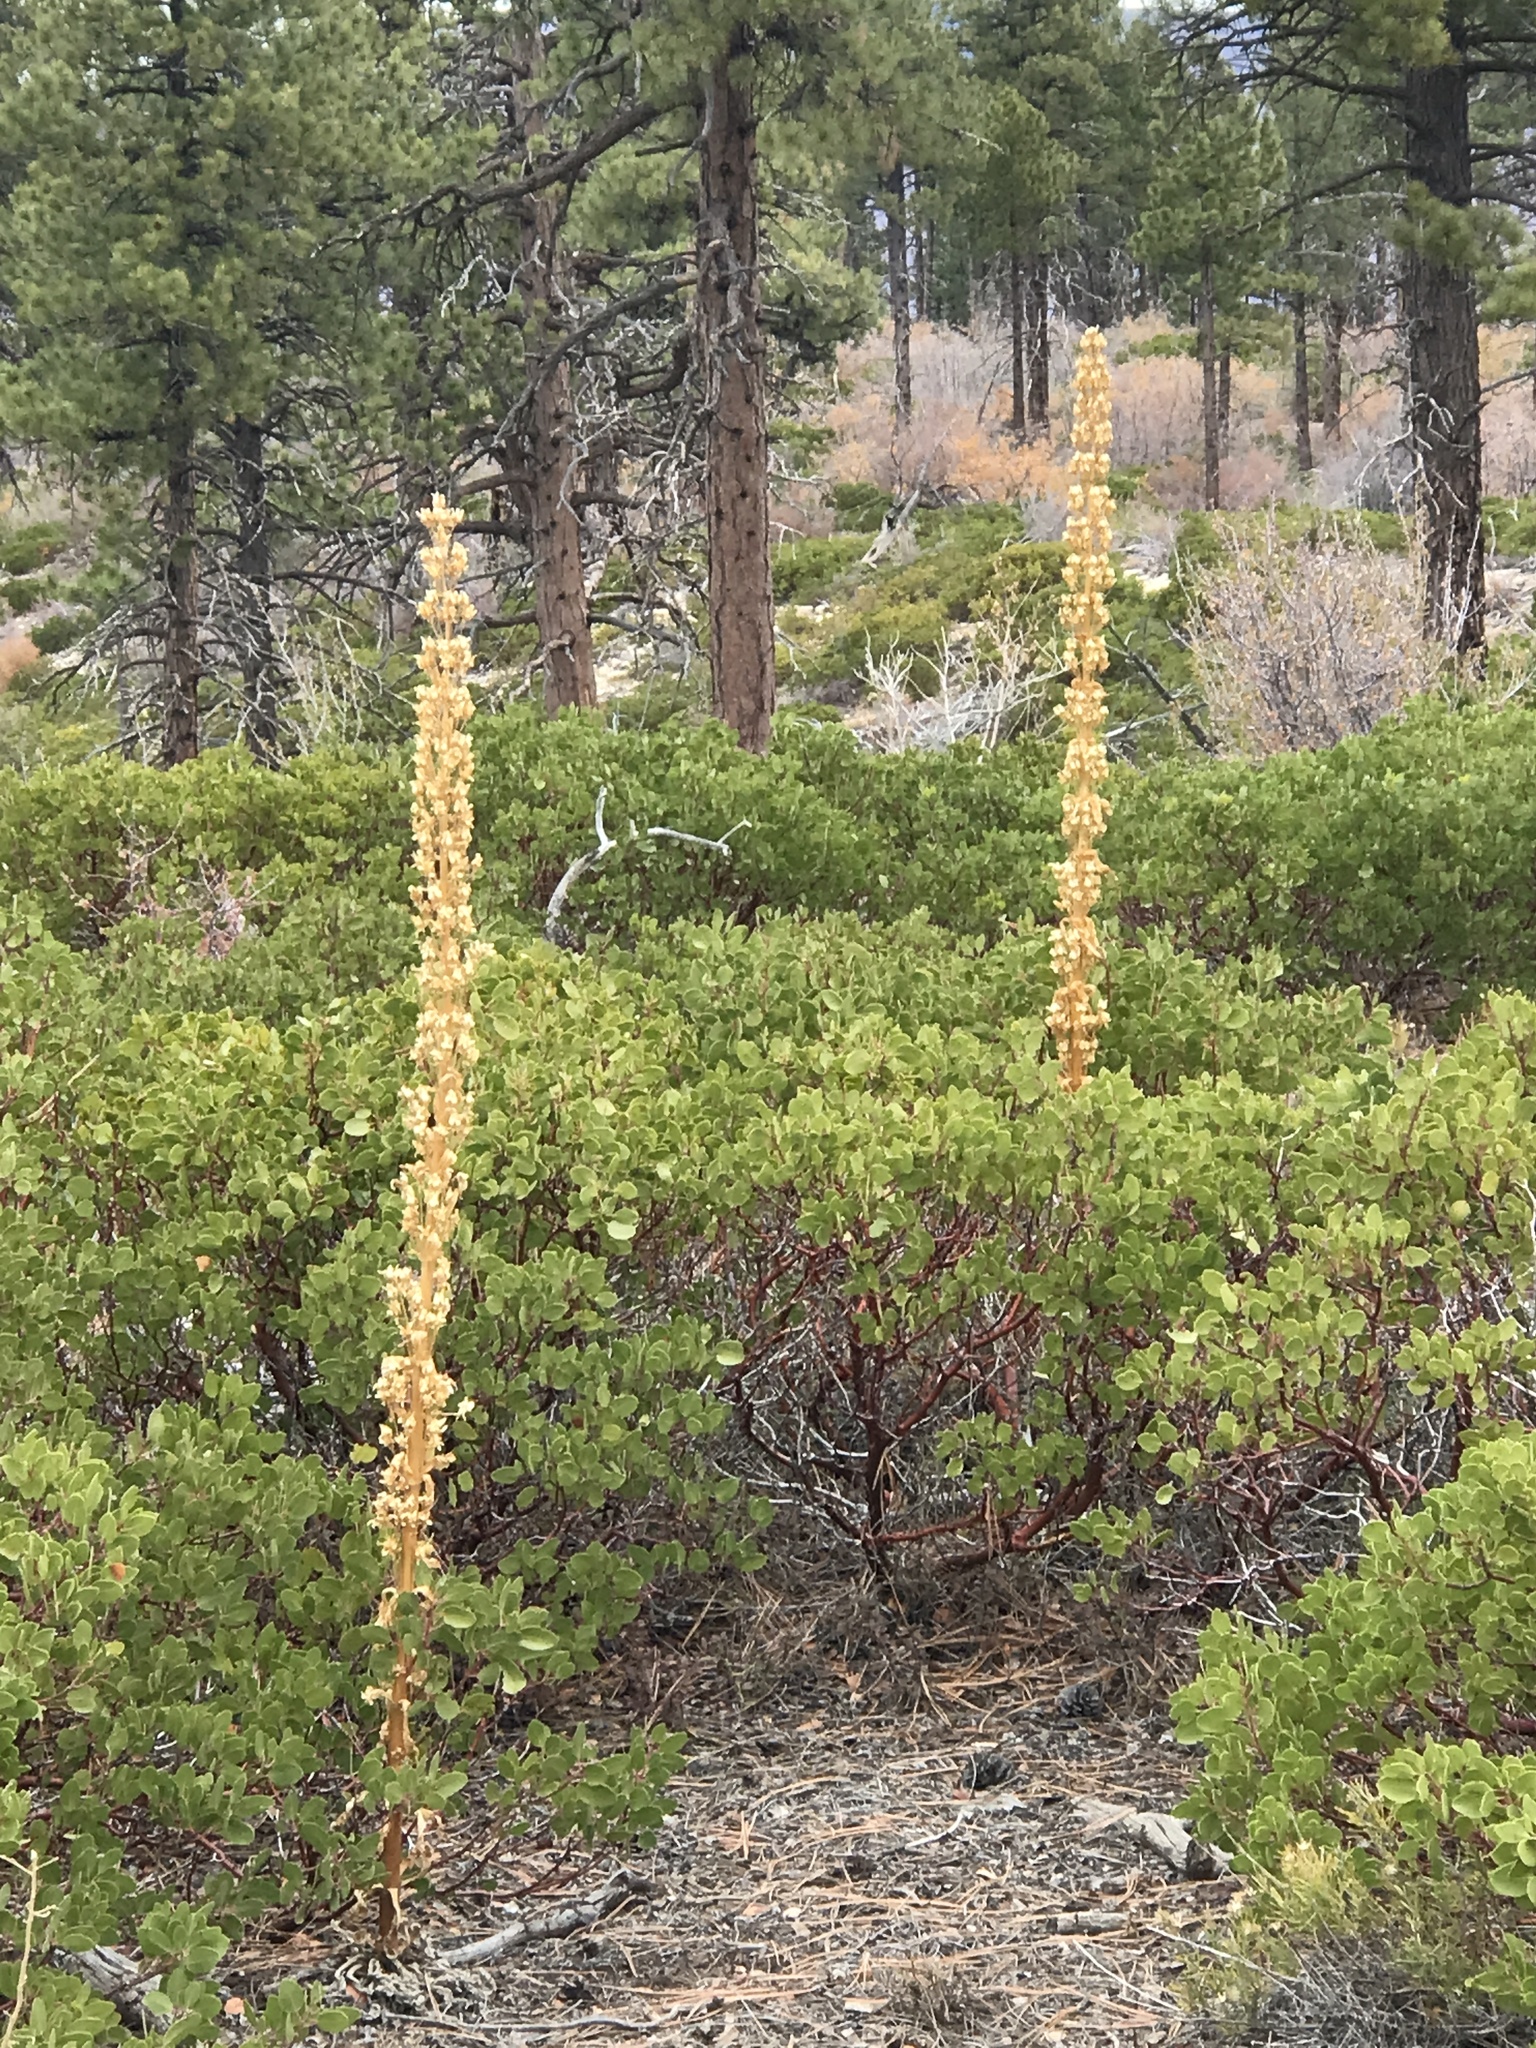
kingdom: Plantae
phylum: Tracheophyta
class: Magnoliopsida
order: Gentianales
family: Gentianaceae
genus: Frasera
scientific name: Frasera speciosa
